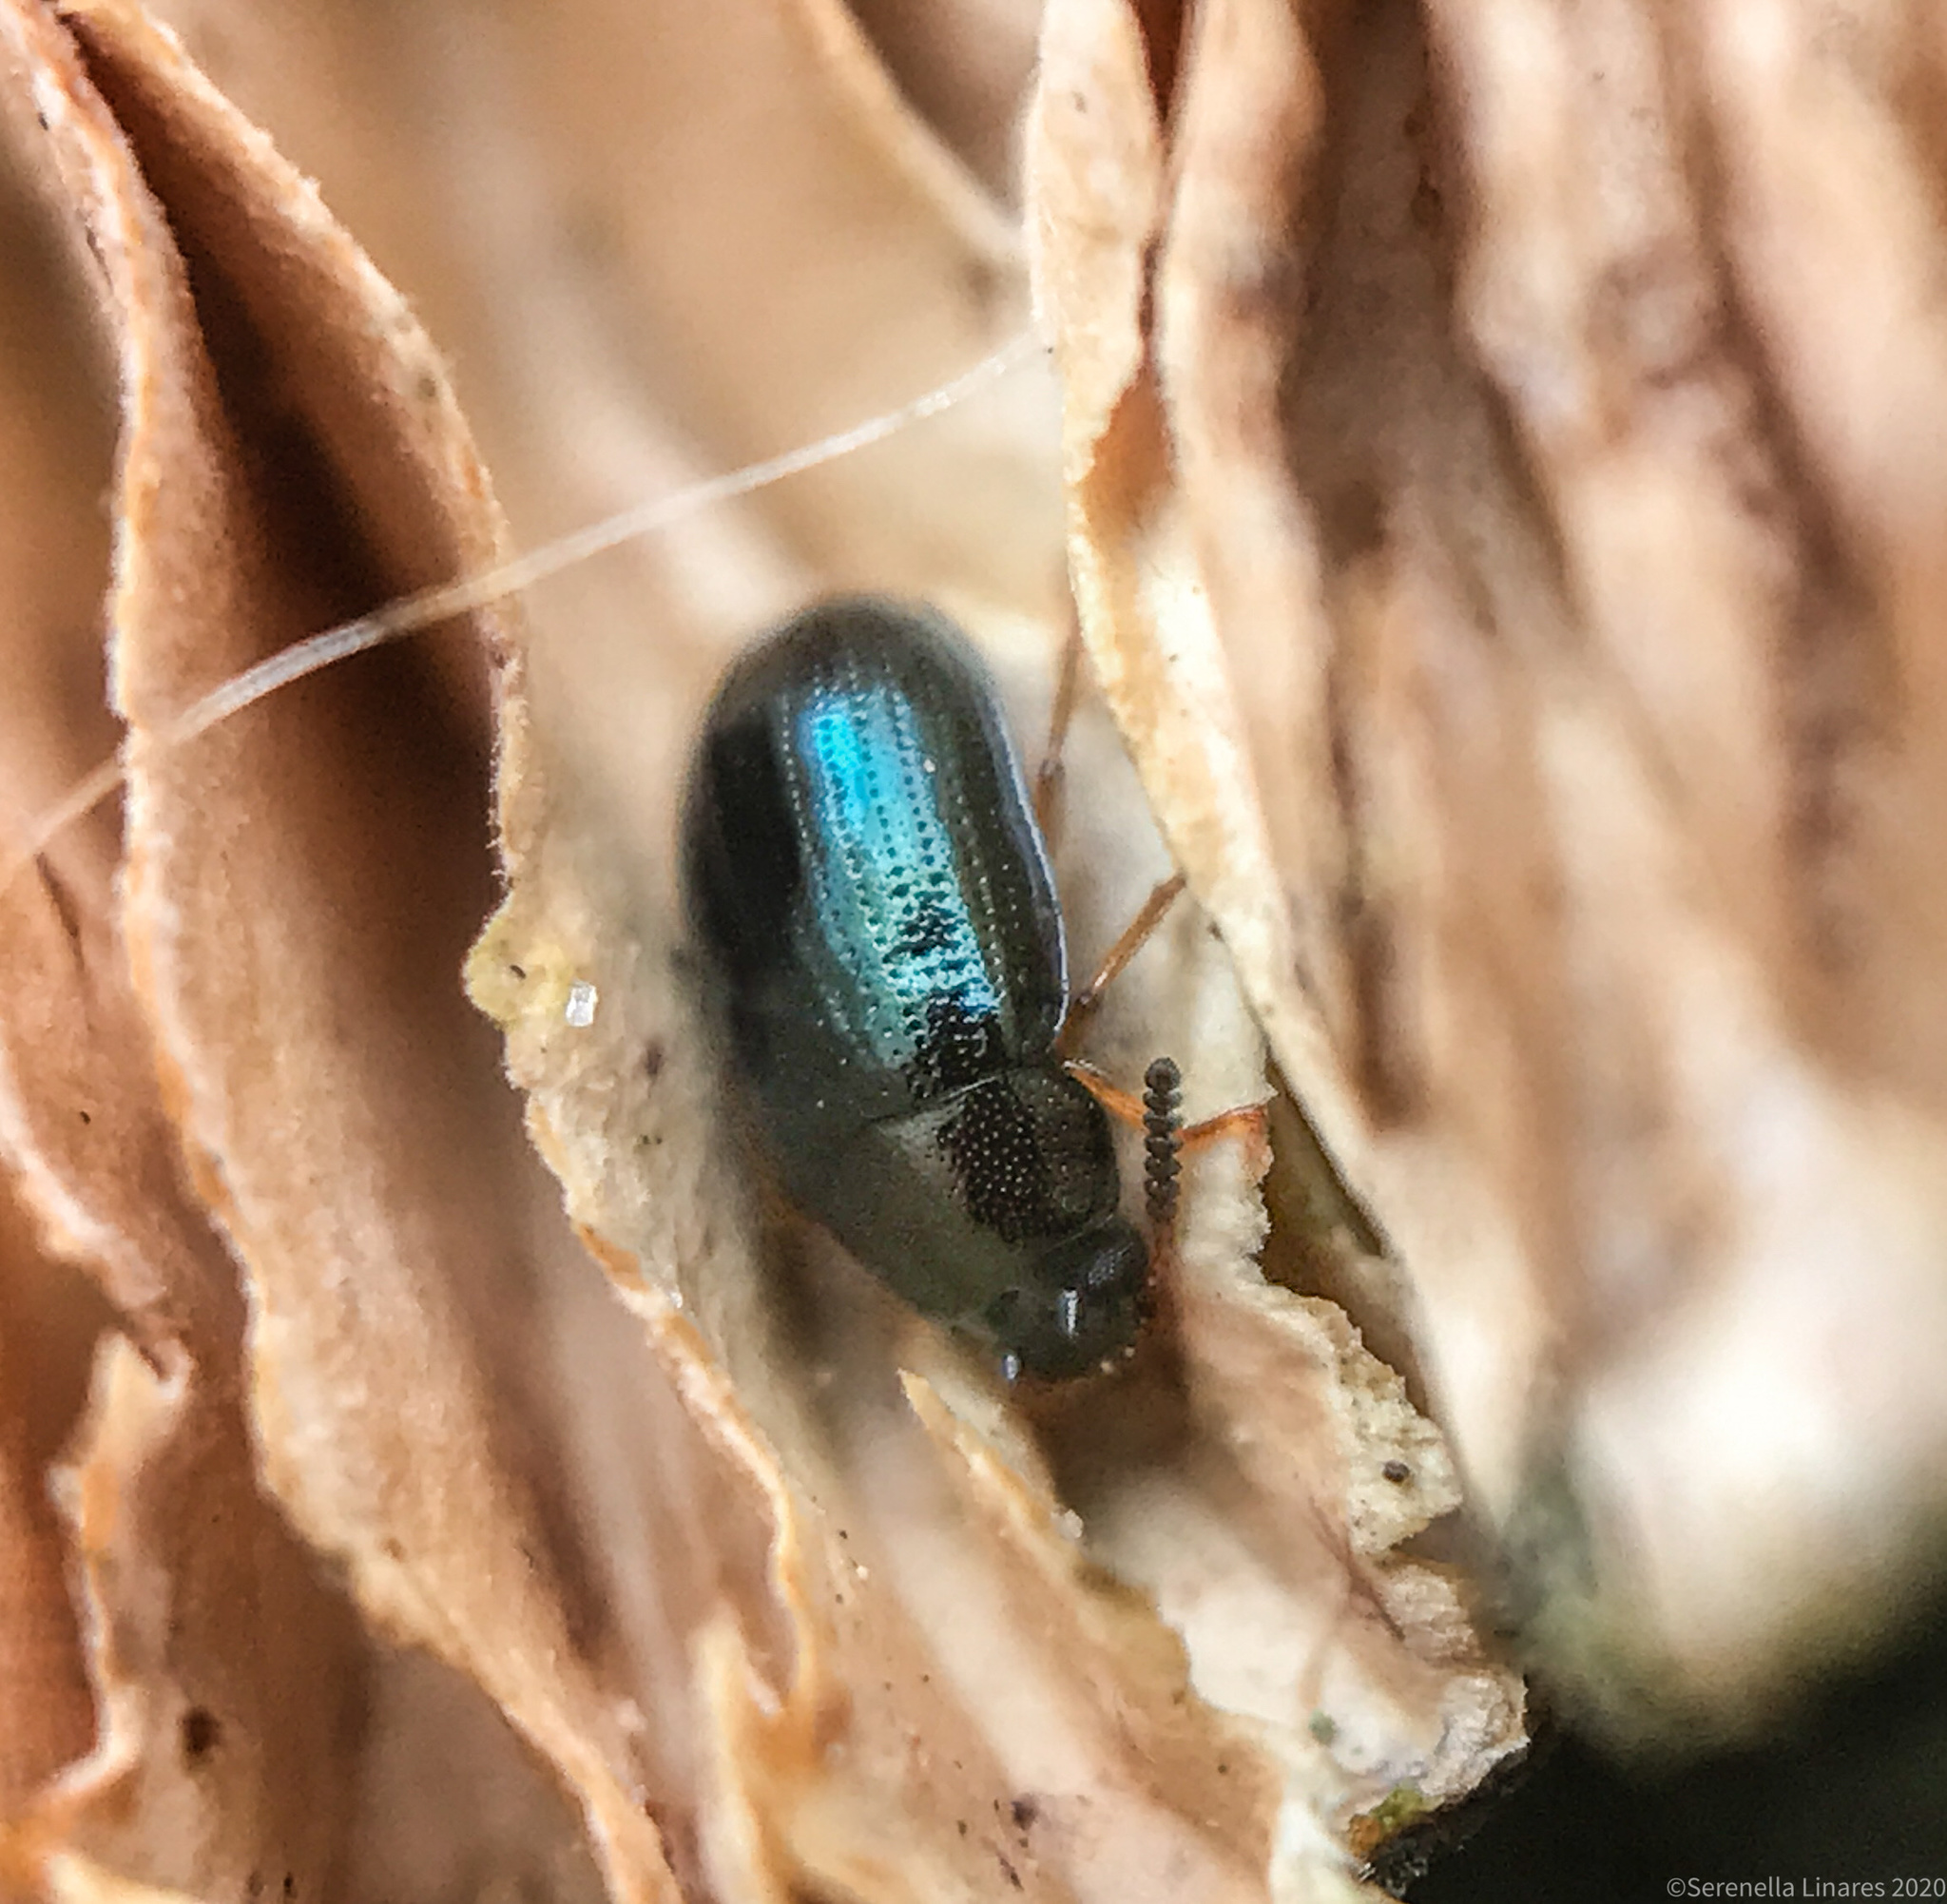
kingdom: Animalia
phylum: Arthropoda
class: Insecta
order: Coleoptera
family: Tenebrionidae
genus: Neomida
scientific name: Neomida bicornis
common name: Two-horned darkling beetle
